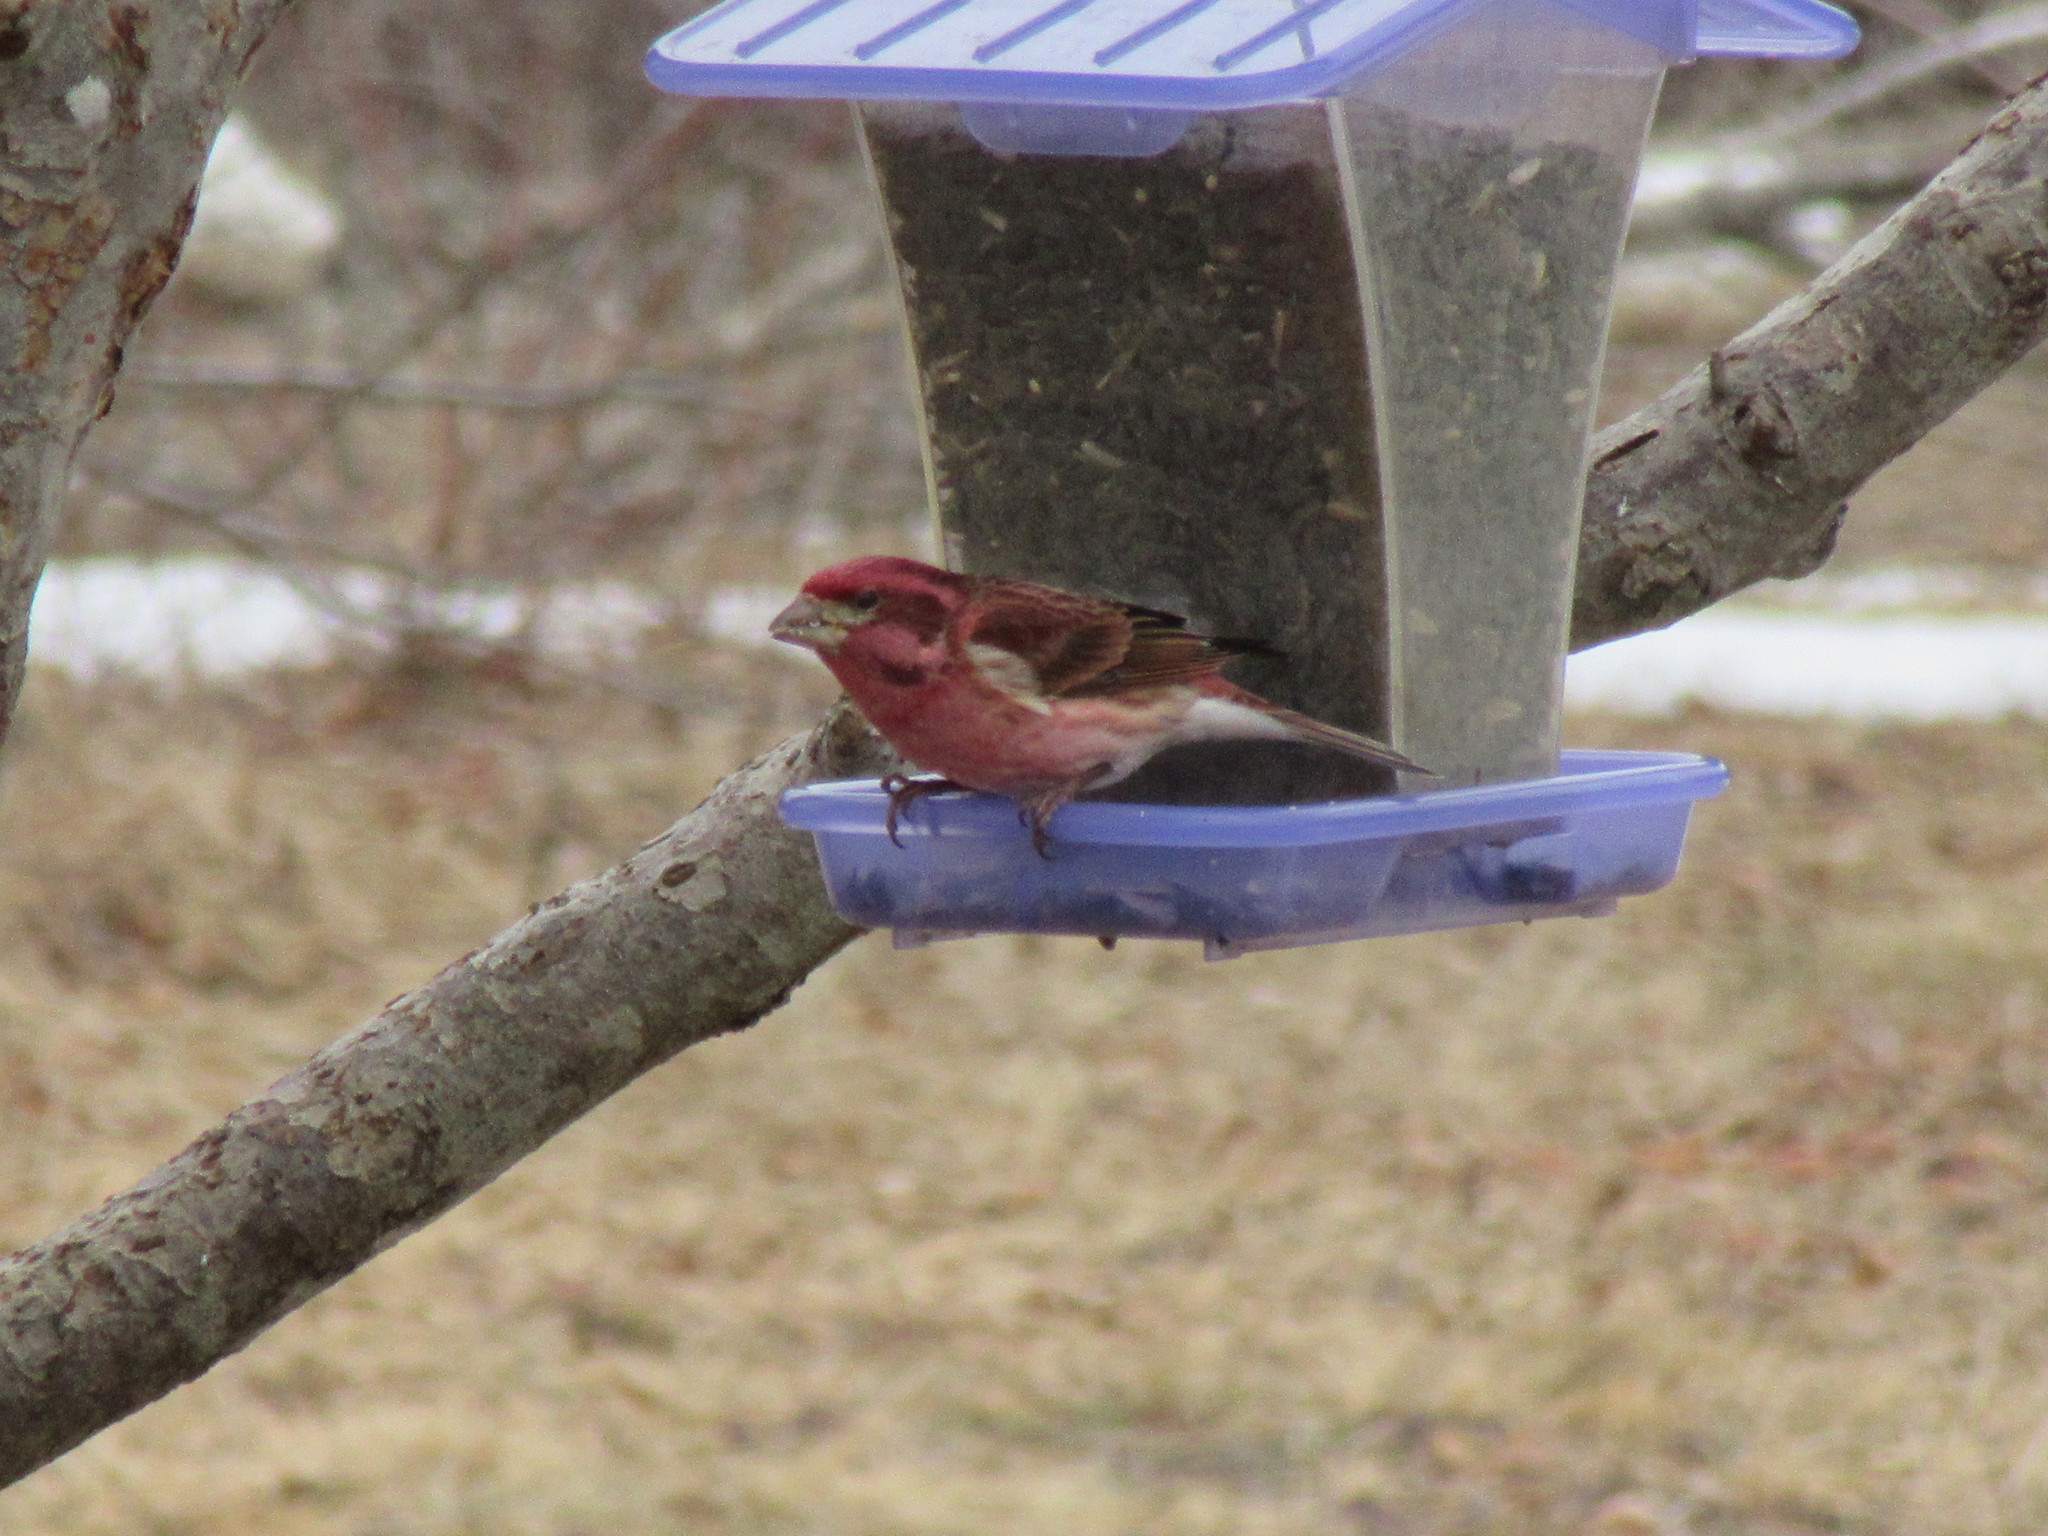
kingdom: Animalia
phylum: Chordata
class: Aves
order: Passeriformes
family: Fringillidae
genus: Haemorhous
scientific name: Haemorhous purpureus
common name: Purple finch
